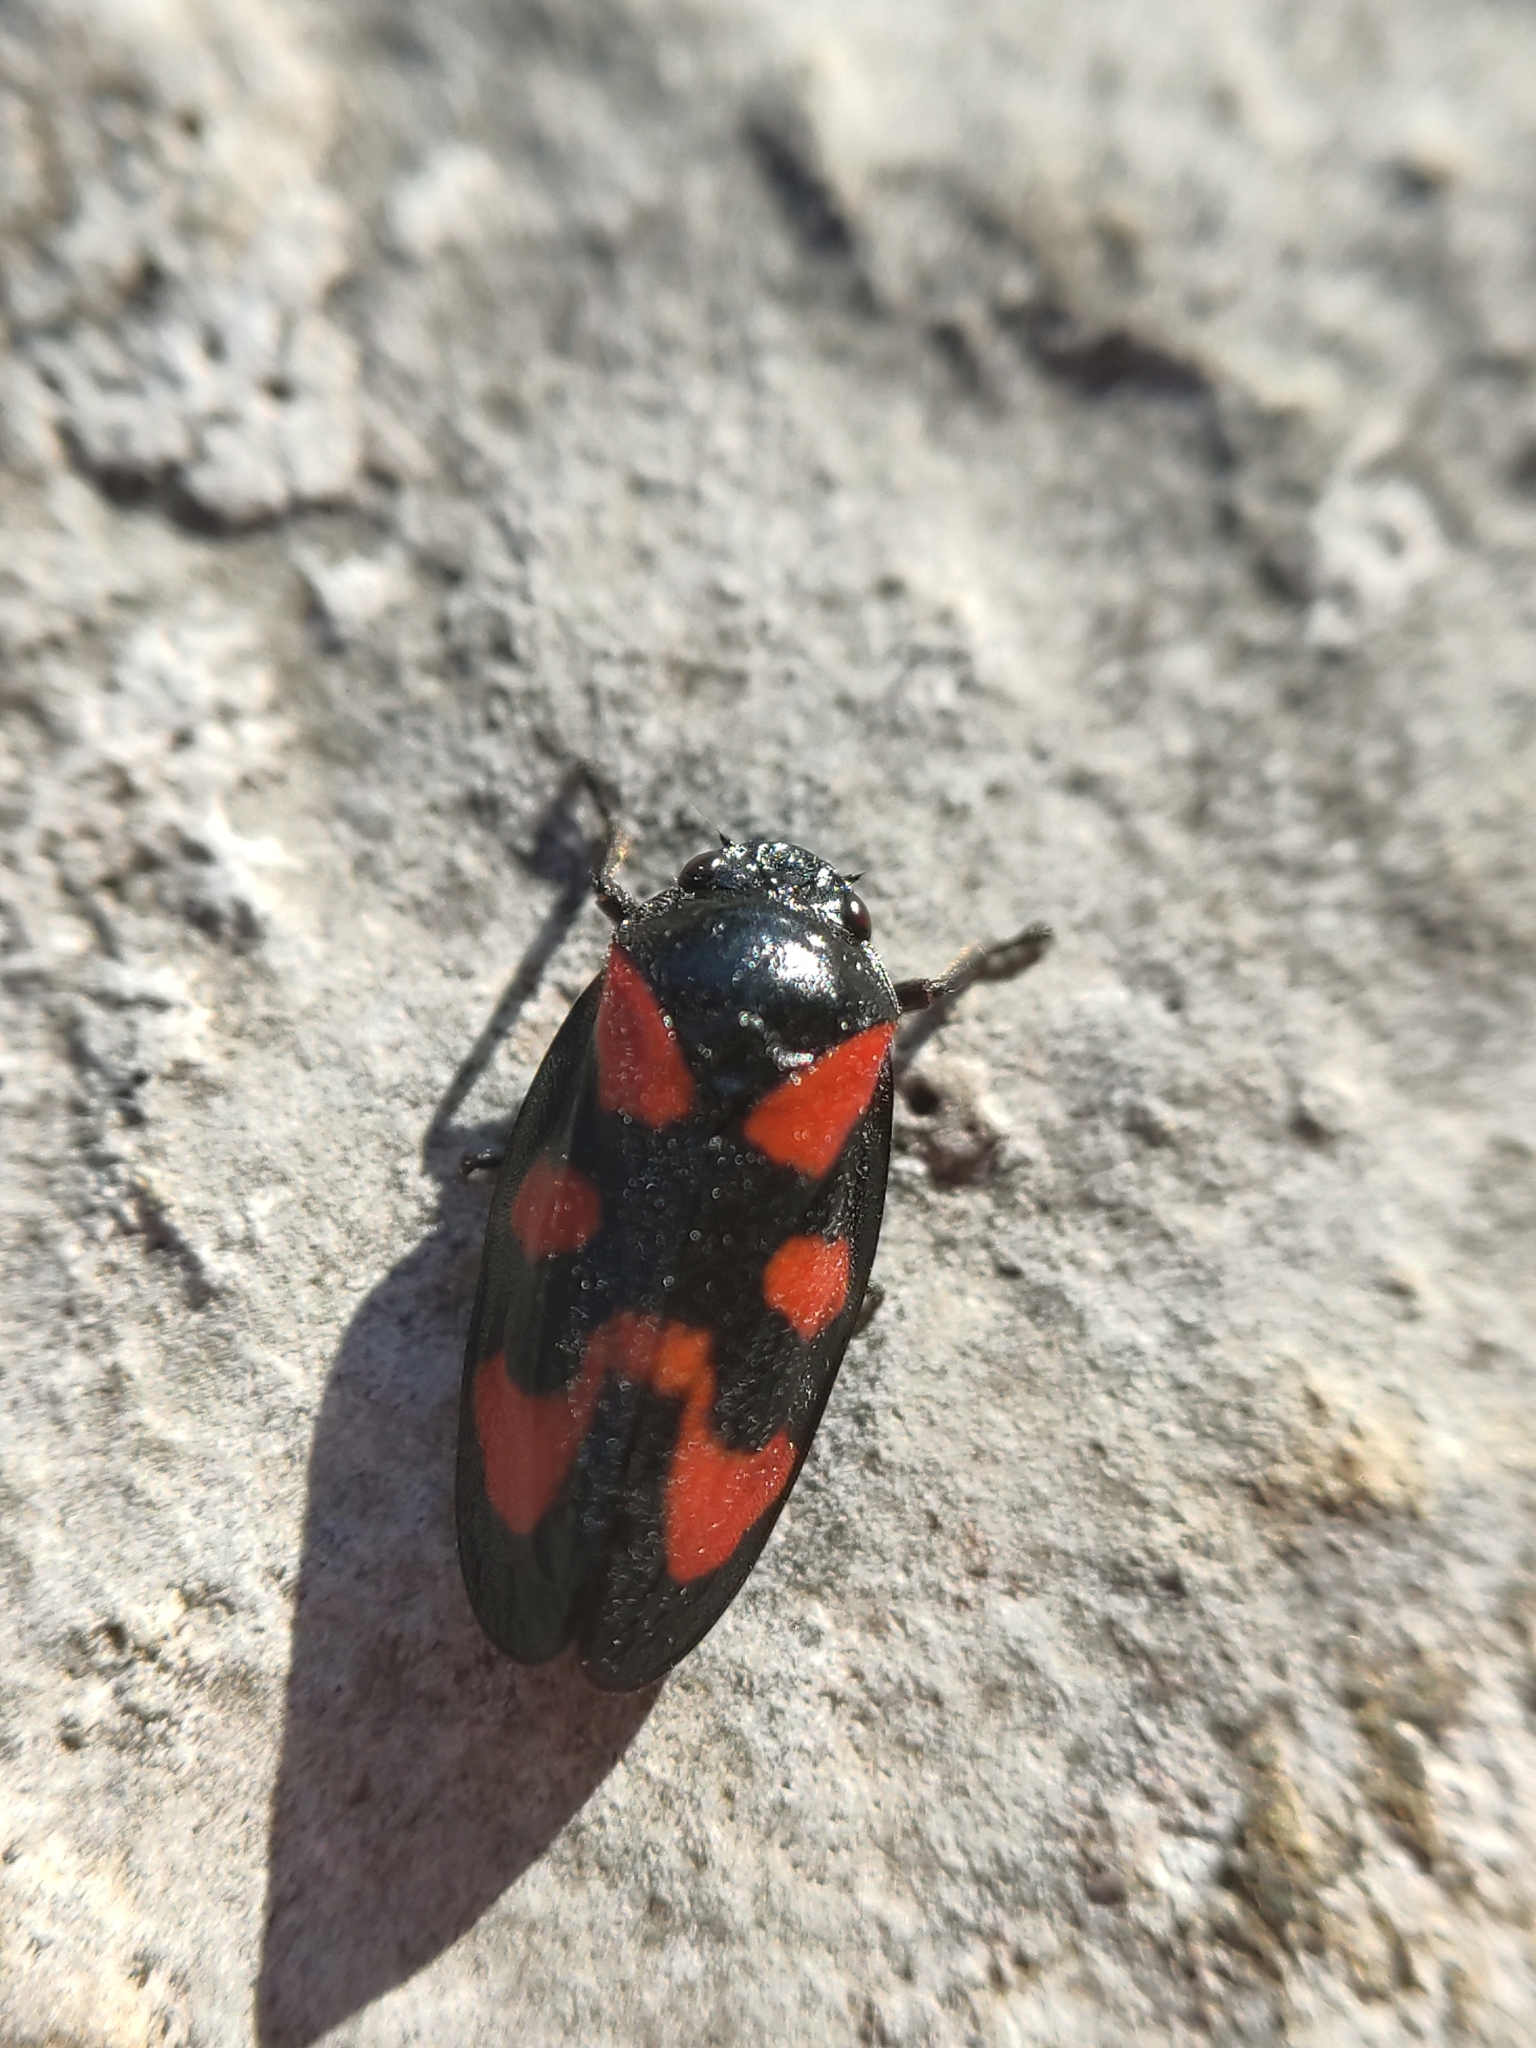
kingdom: Animalia
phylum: Arthropoda
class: Insecta
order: Hemiptera
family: Cercopidae
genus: Cercopis
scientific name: Cercopis vulnerata
